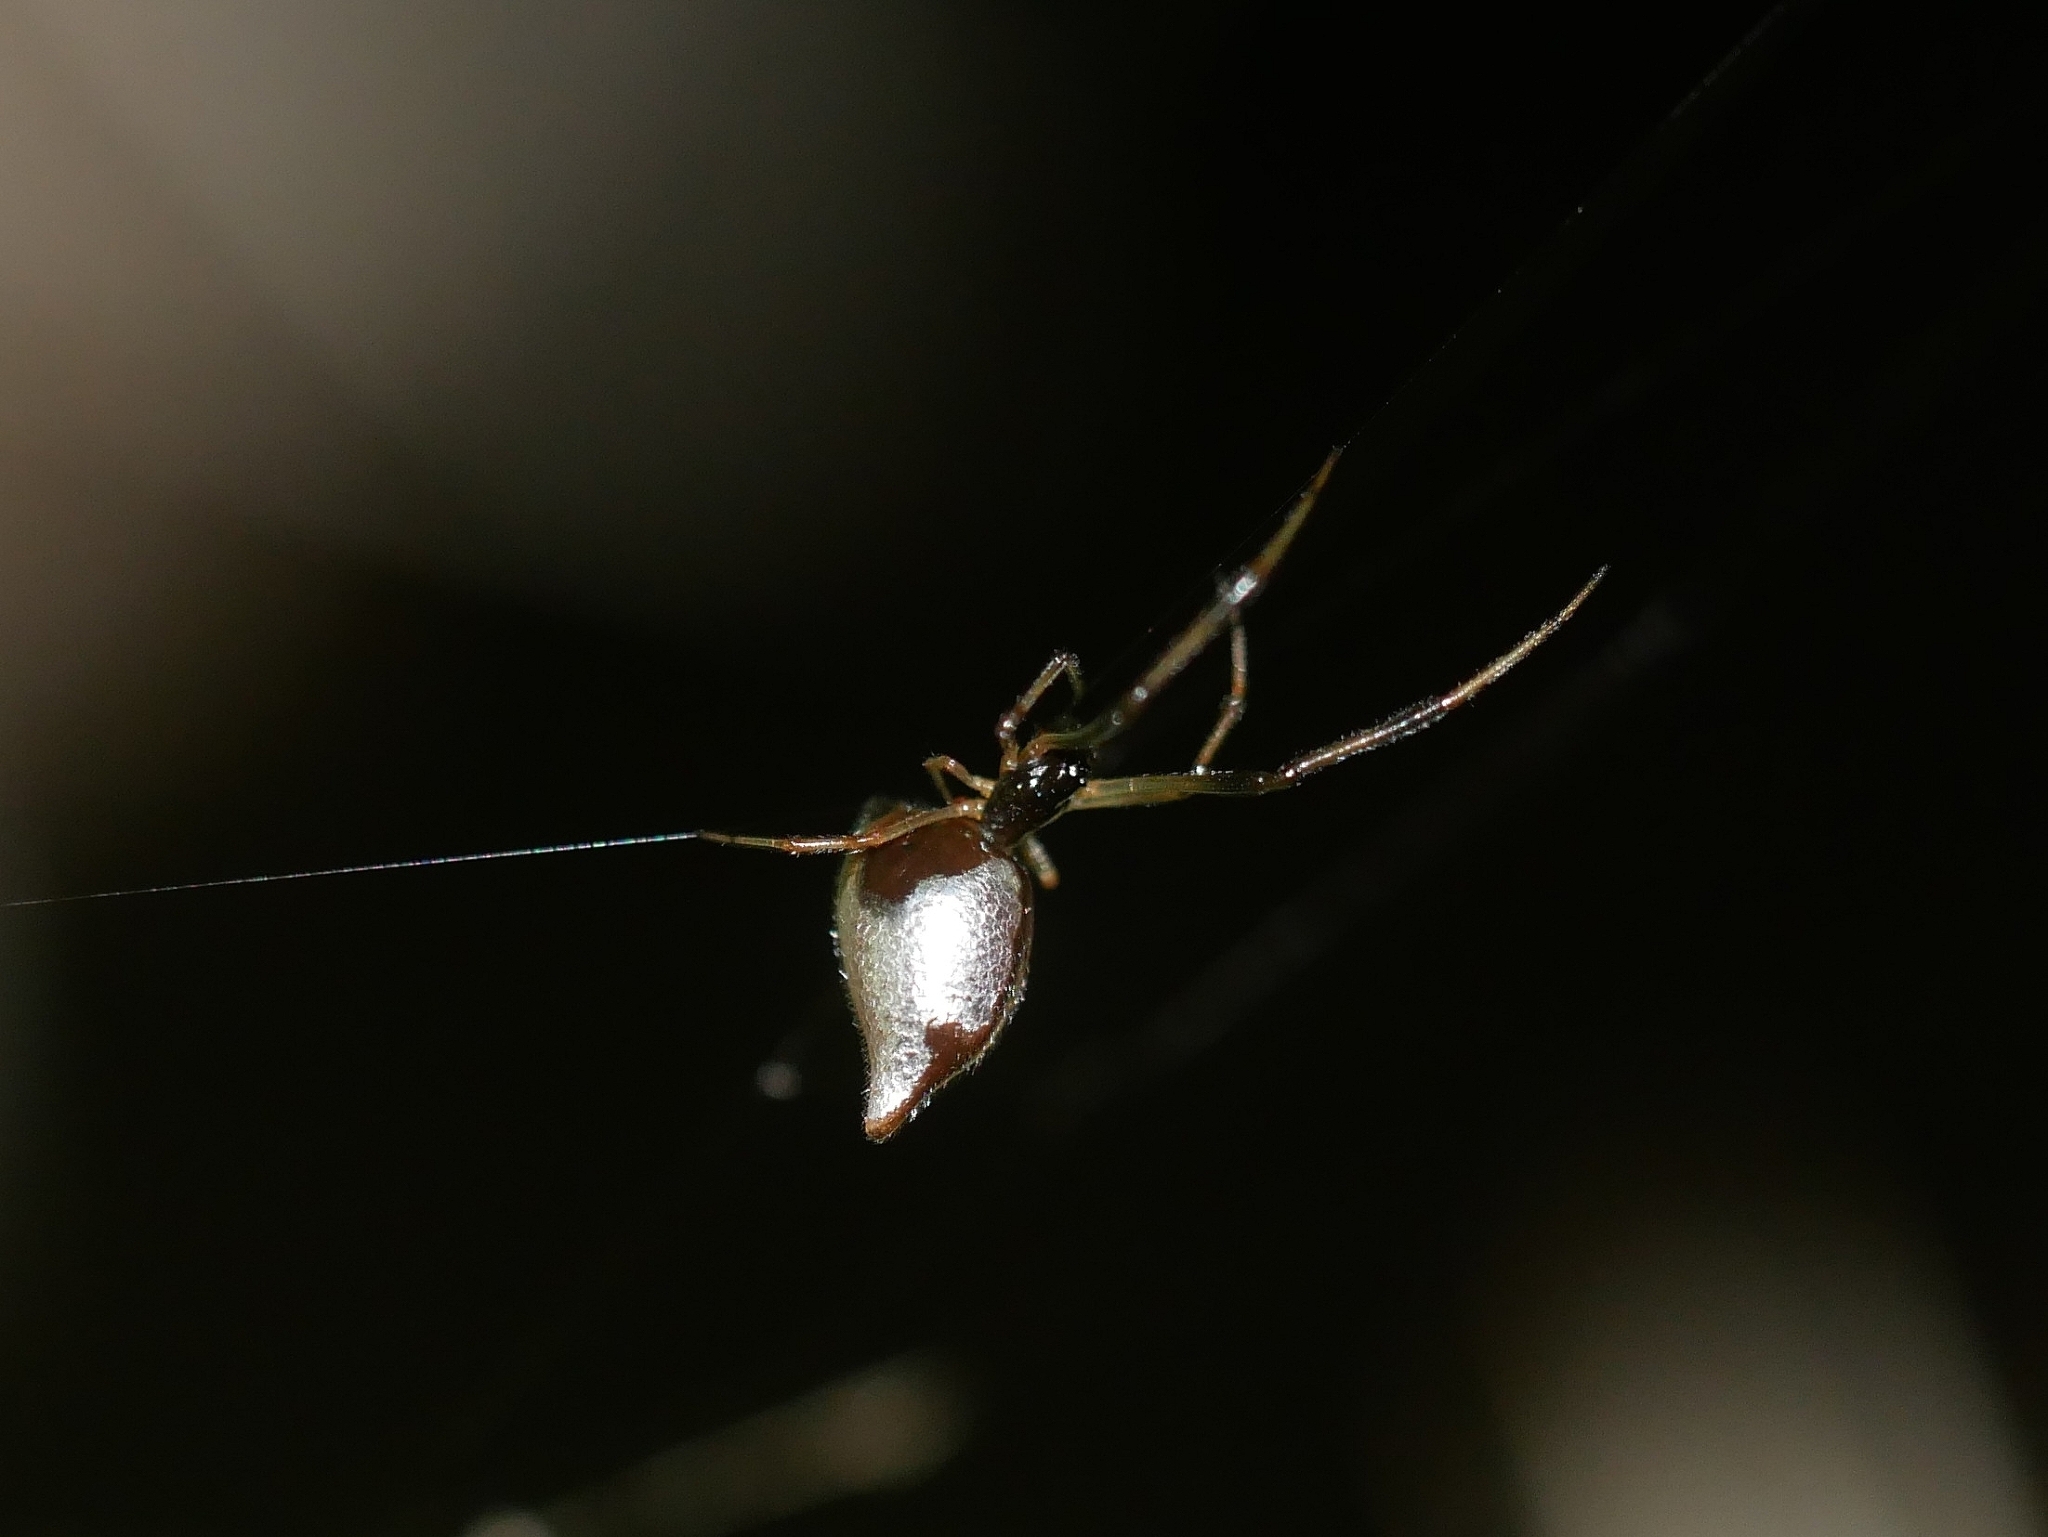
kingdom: Animalia
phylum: Arthropoda
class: Arachnida
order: Araneae
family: Theridiidae
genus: Argyrodes
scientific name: Argyrodes elevatus
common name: Cobweb spiders
